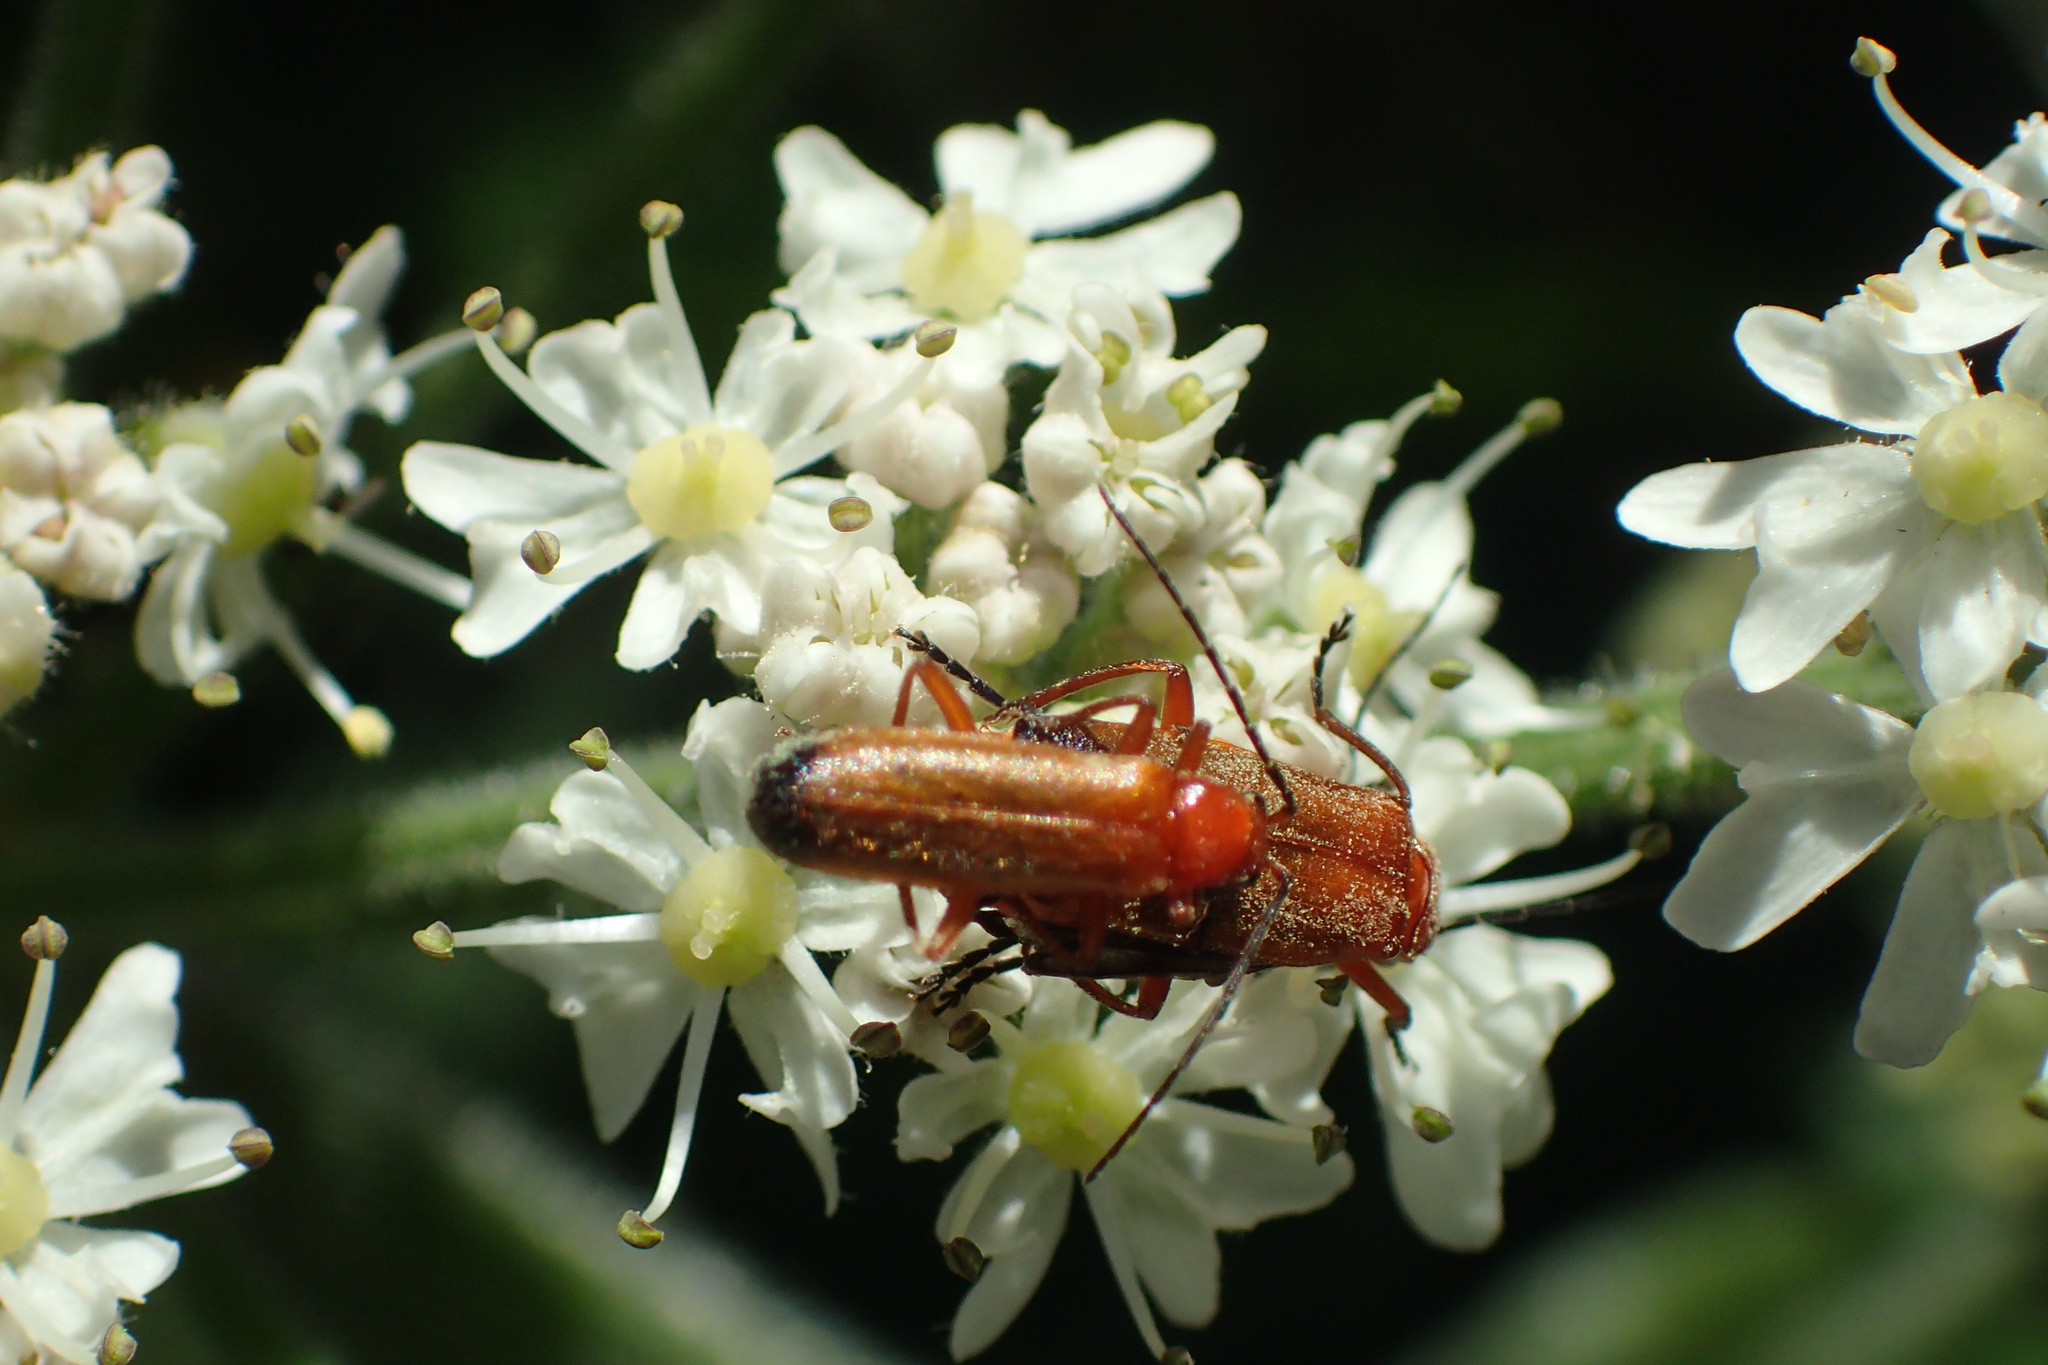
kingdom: Animalia
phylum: Arthropoda
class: Insecta
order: Coleoptera
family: Cantharidae
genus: Rhagonycha
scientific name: Rhagonycha fulva
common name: Common red soldier beetle
